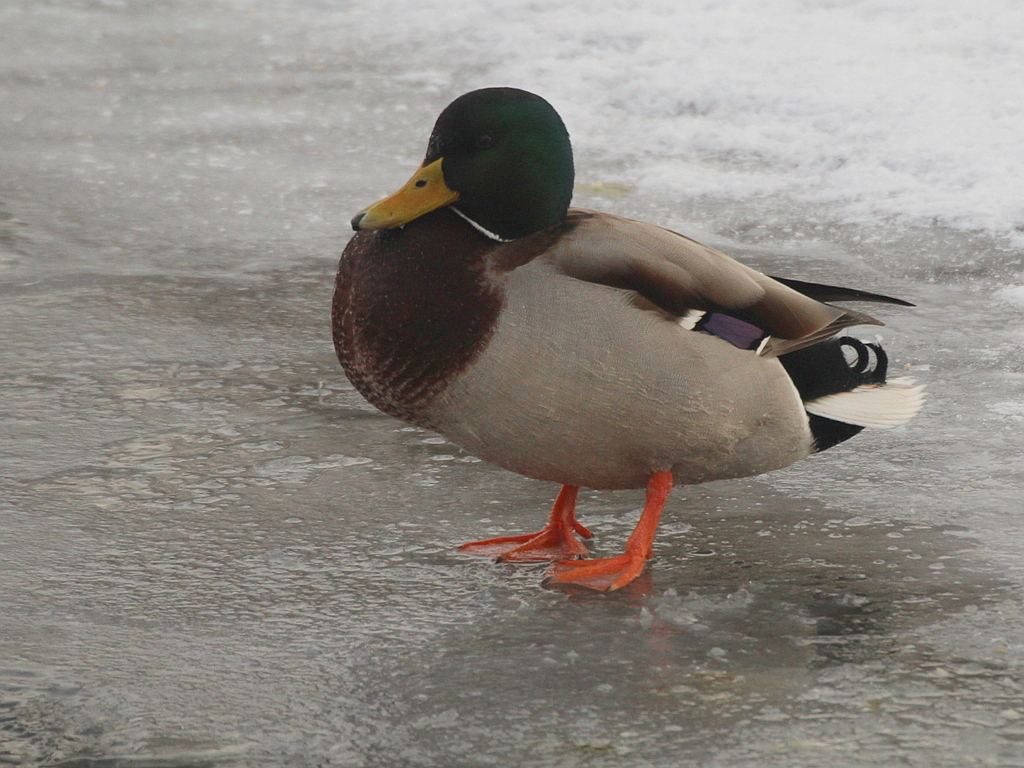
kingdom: Animalia
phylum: Chordata
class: Aves
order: Anseriformes
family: Anatidae
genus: Anas
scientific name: Anas platyrhynchos
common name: Mallard
